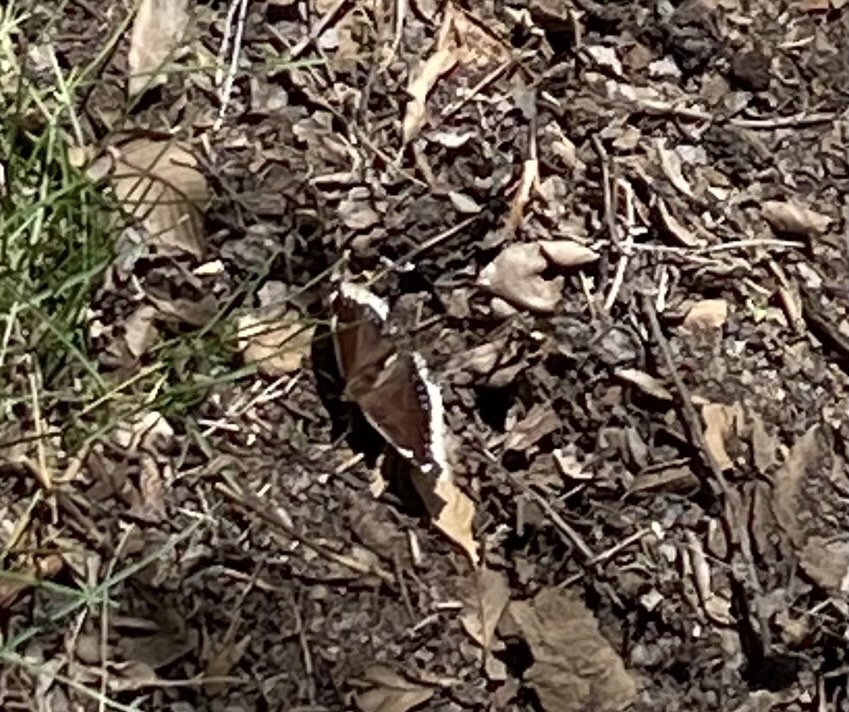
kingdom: Animalia
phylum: Arthropoda
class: Insecta
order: Lepidoptera
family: Nymphalidae
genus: Nymphalis
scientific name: Nymphalis antiopa
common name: Camberwell beauty
